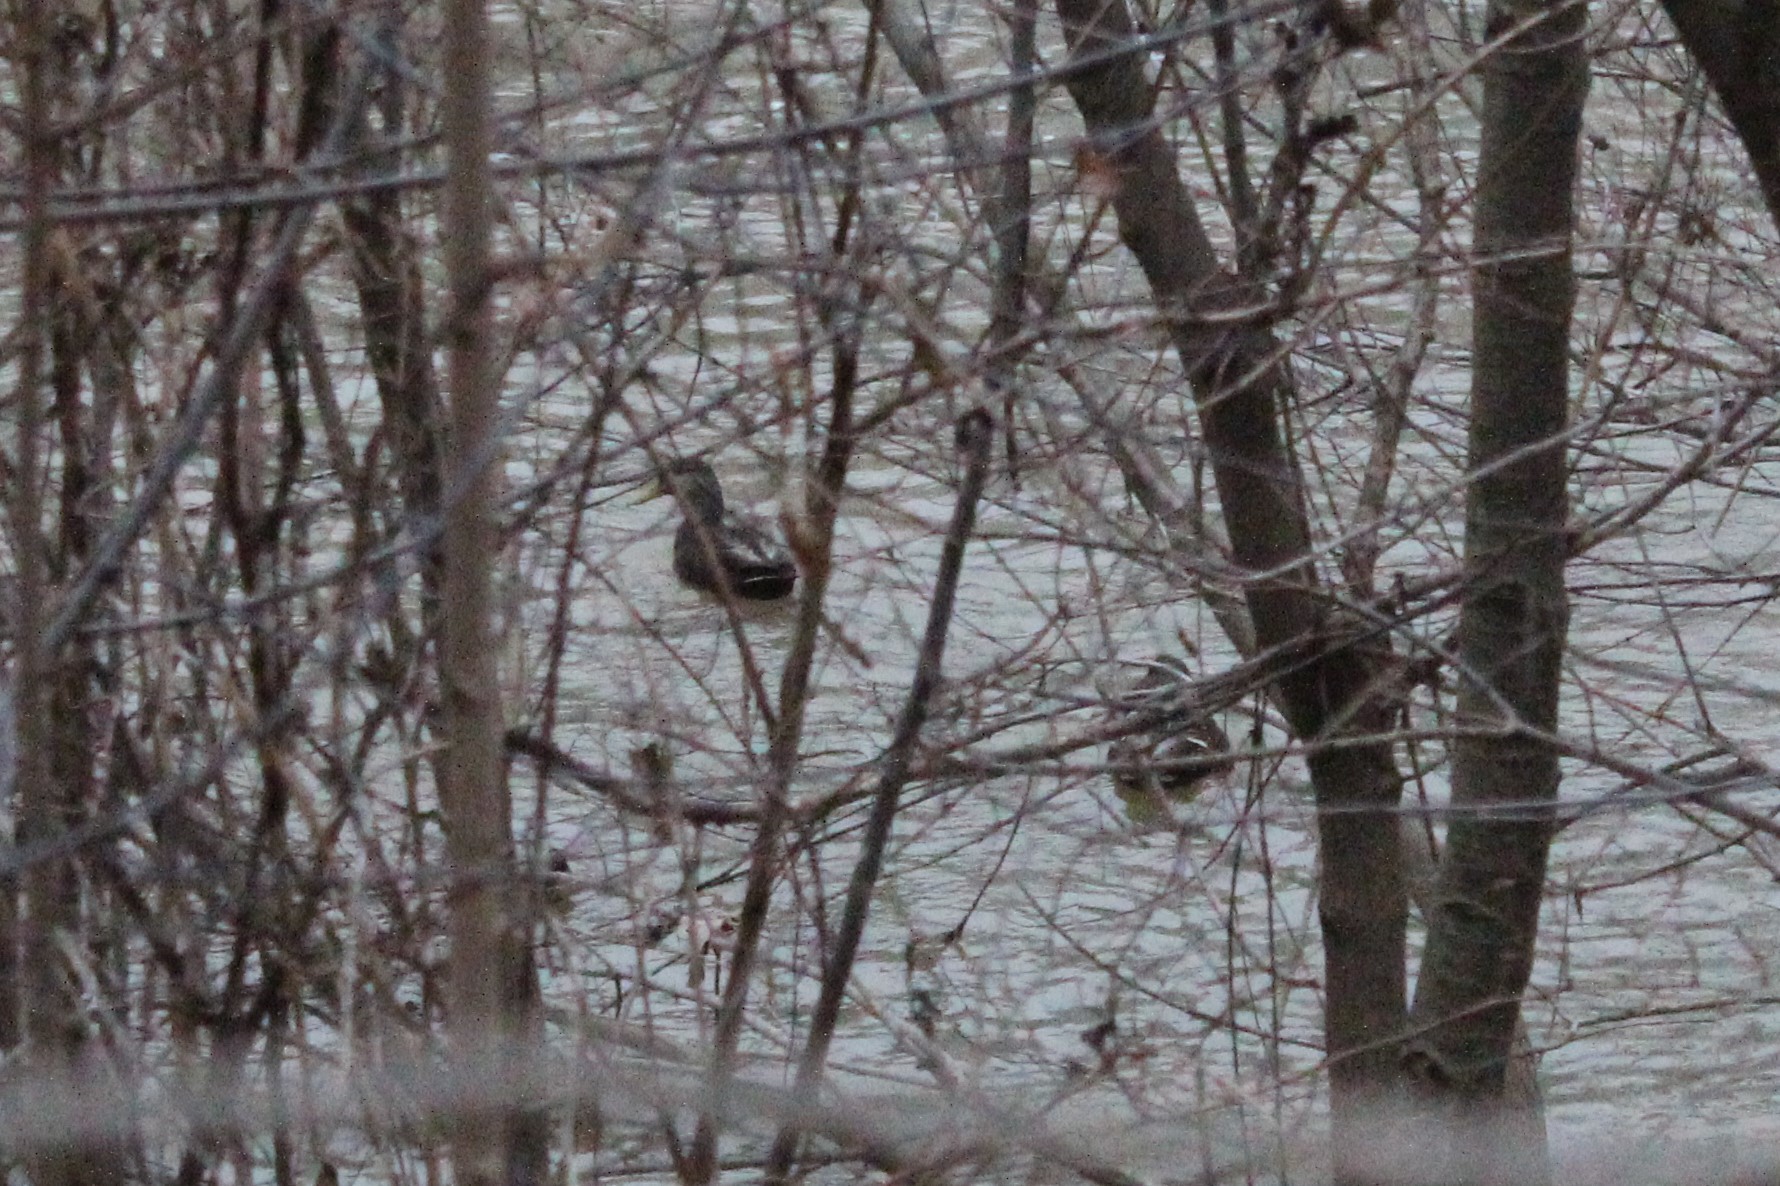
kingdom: Animalia
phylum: Chordata
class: Aves
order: Anseriformes
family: Anatidae
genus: Anas
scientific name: Anas rubripes
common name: American black duck
